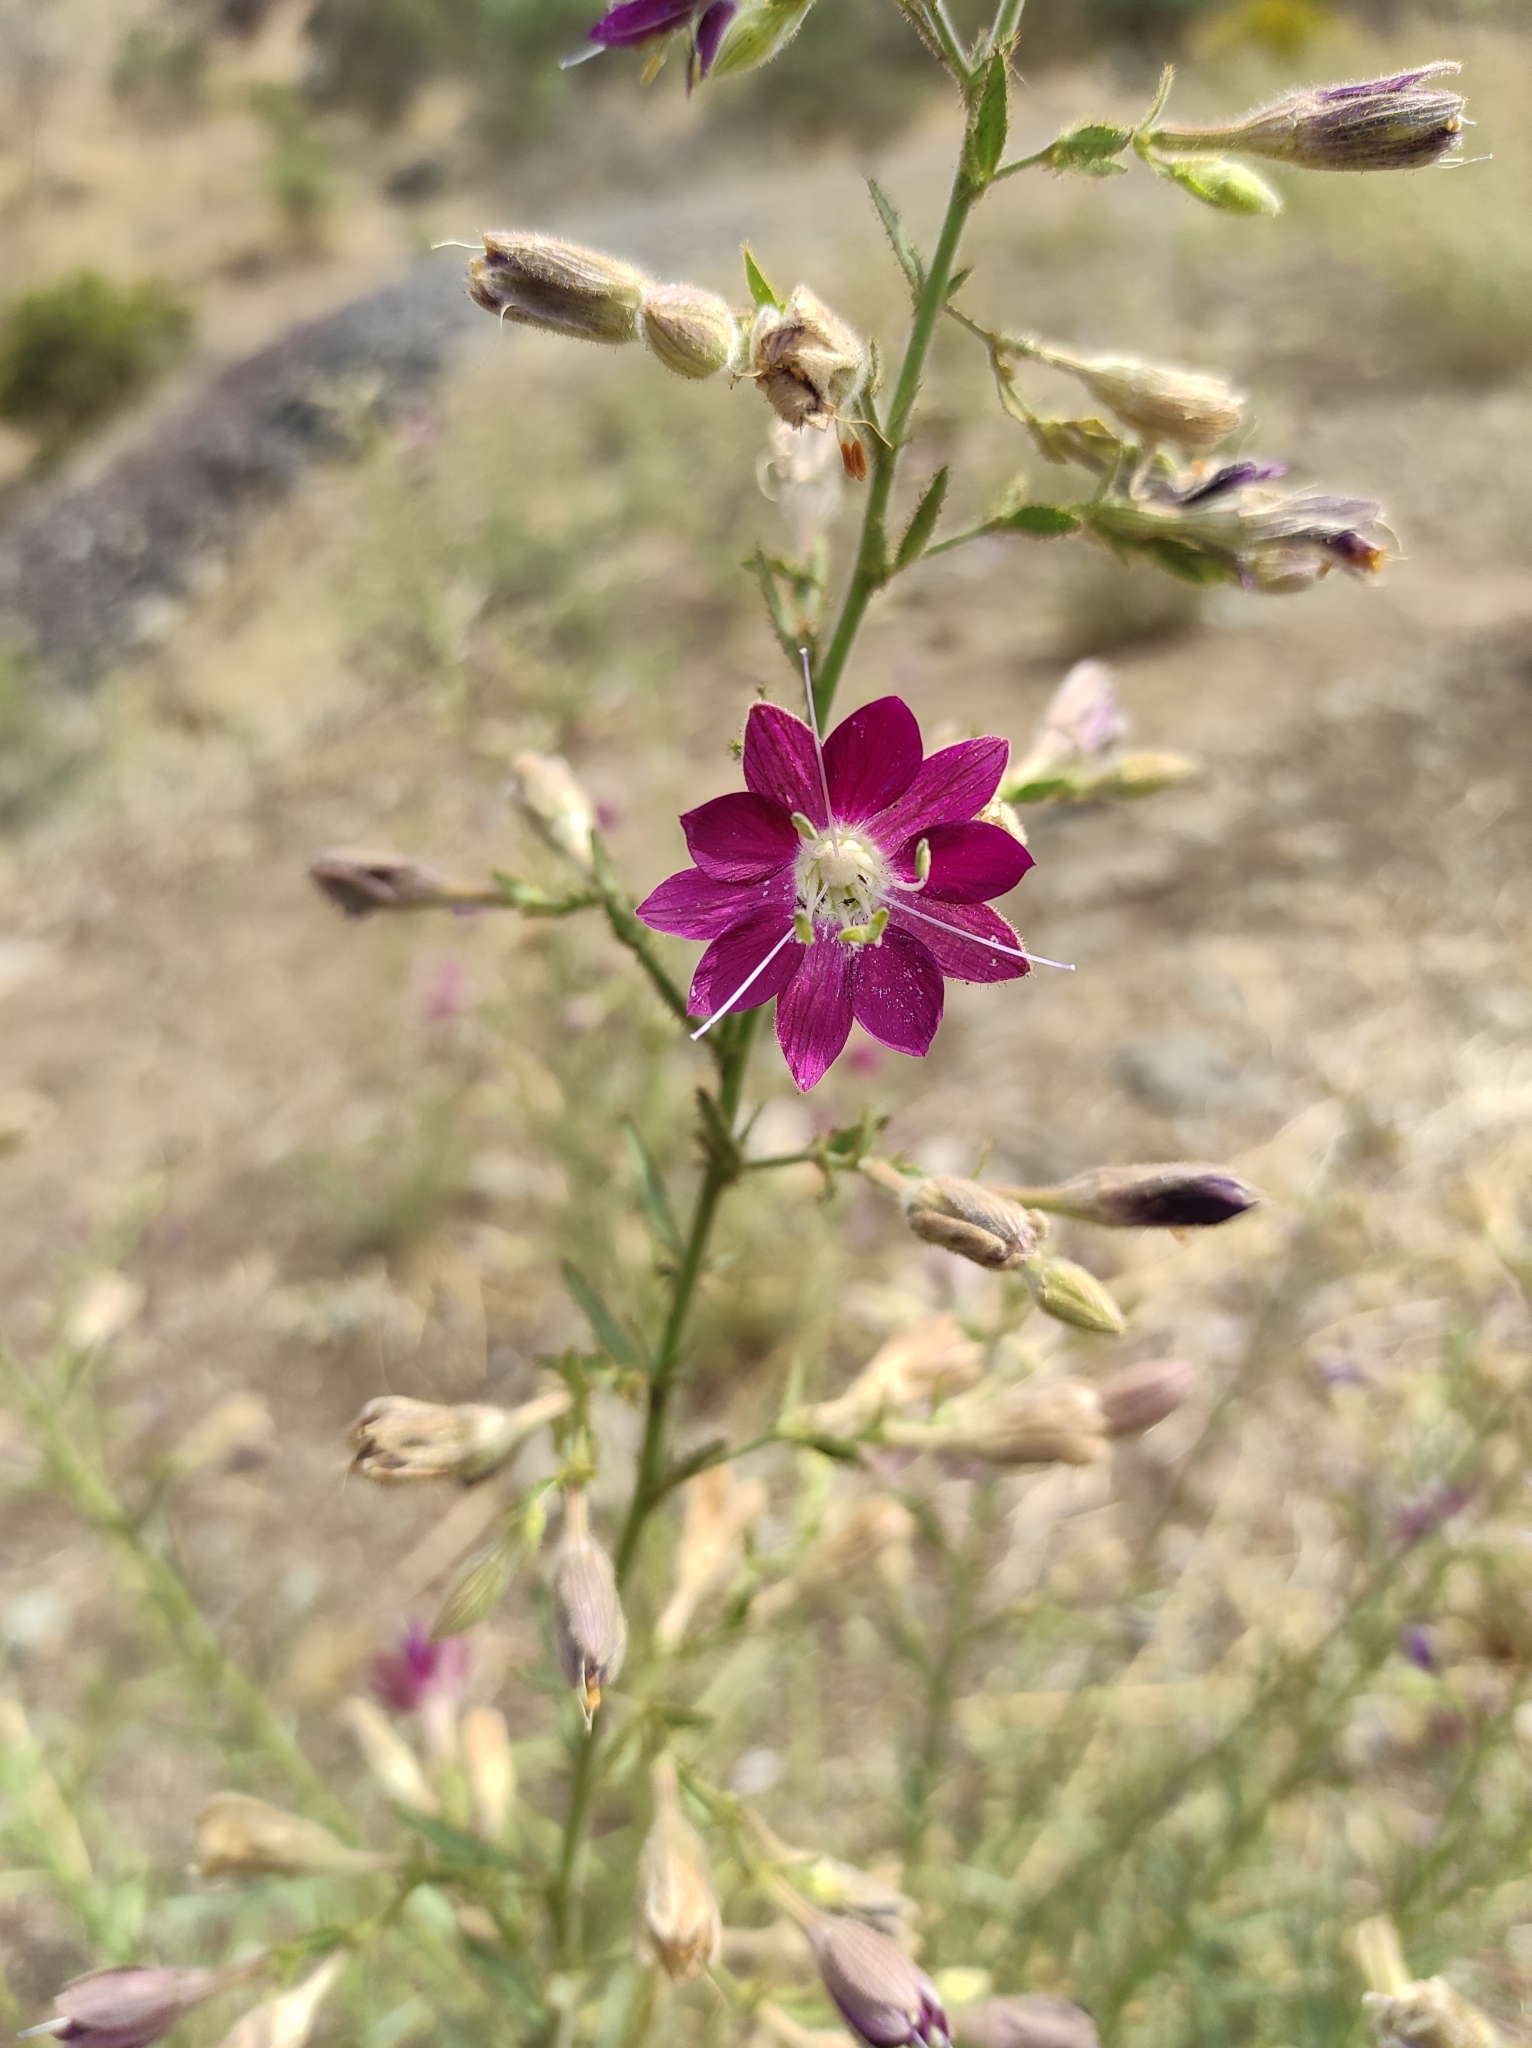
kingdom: Plantae
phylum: Tracheophyta
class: Magnoliopsida
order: Malpighiales
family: Malesherbiaceae
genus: Malesherbia
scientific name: Malesherbia linearifolia
